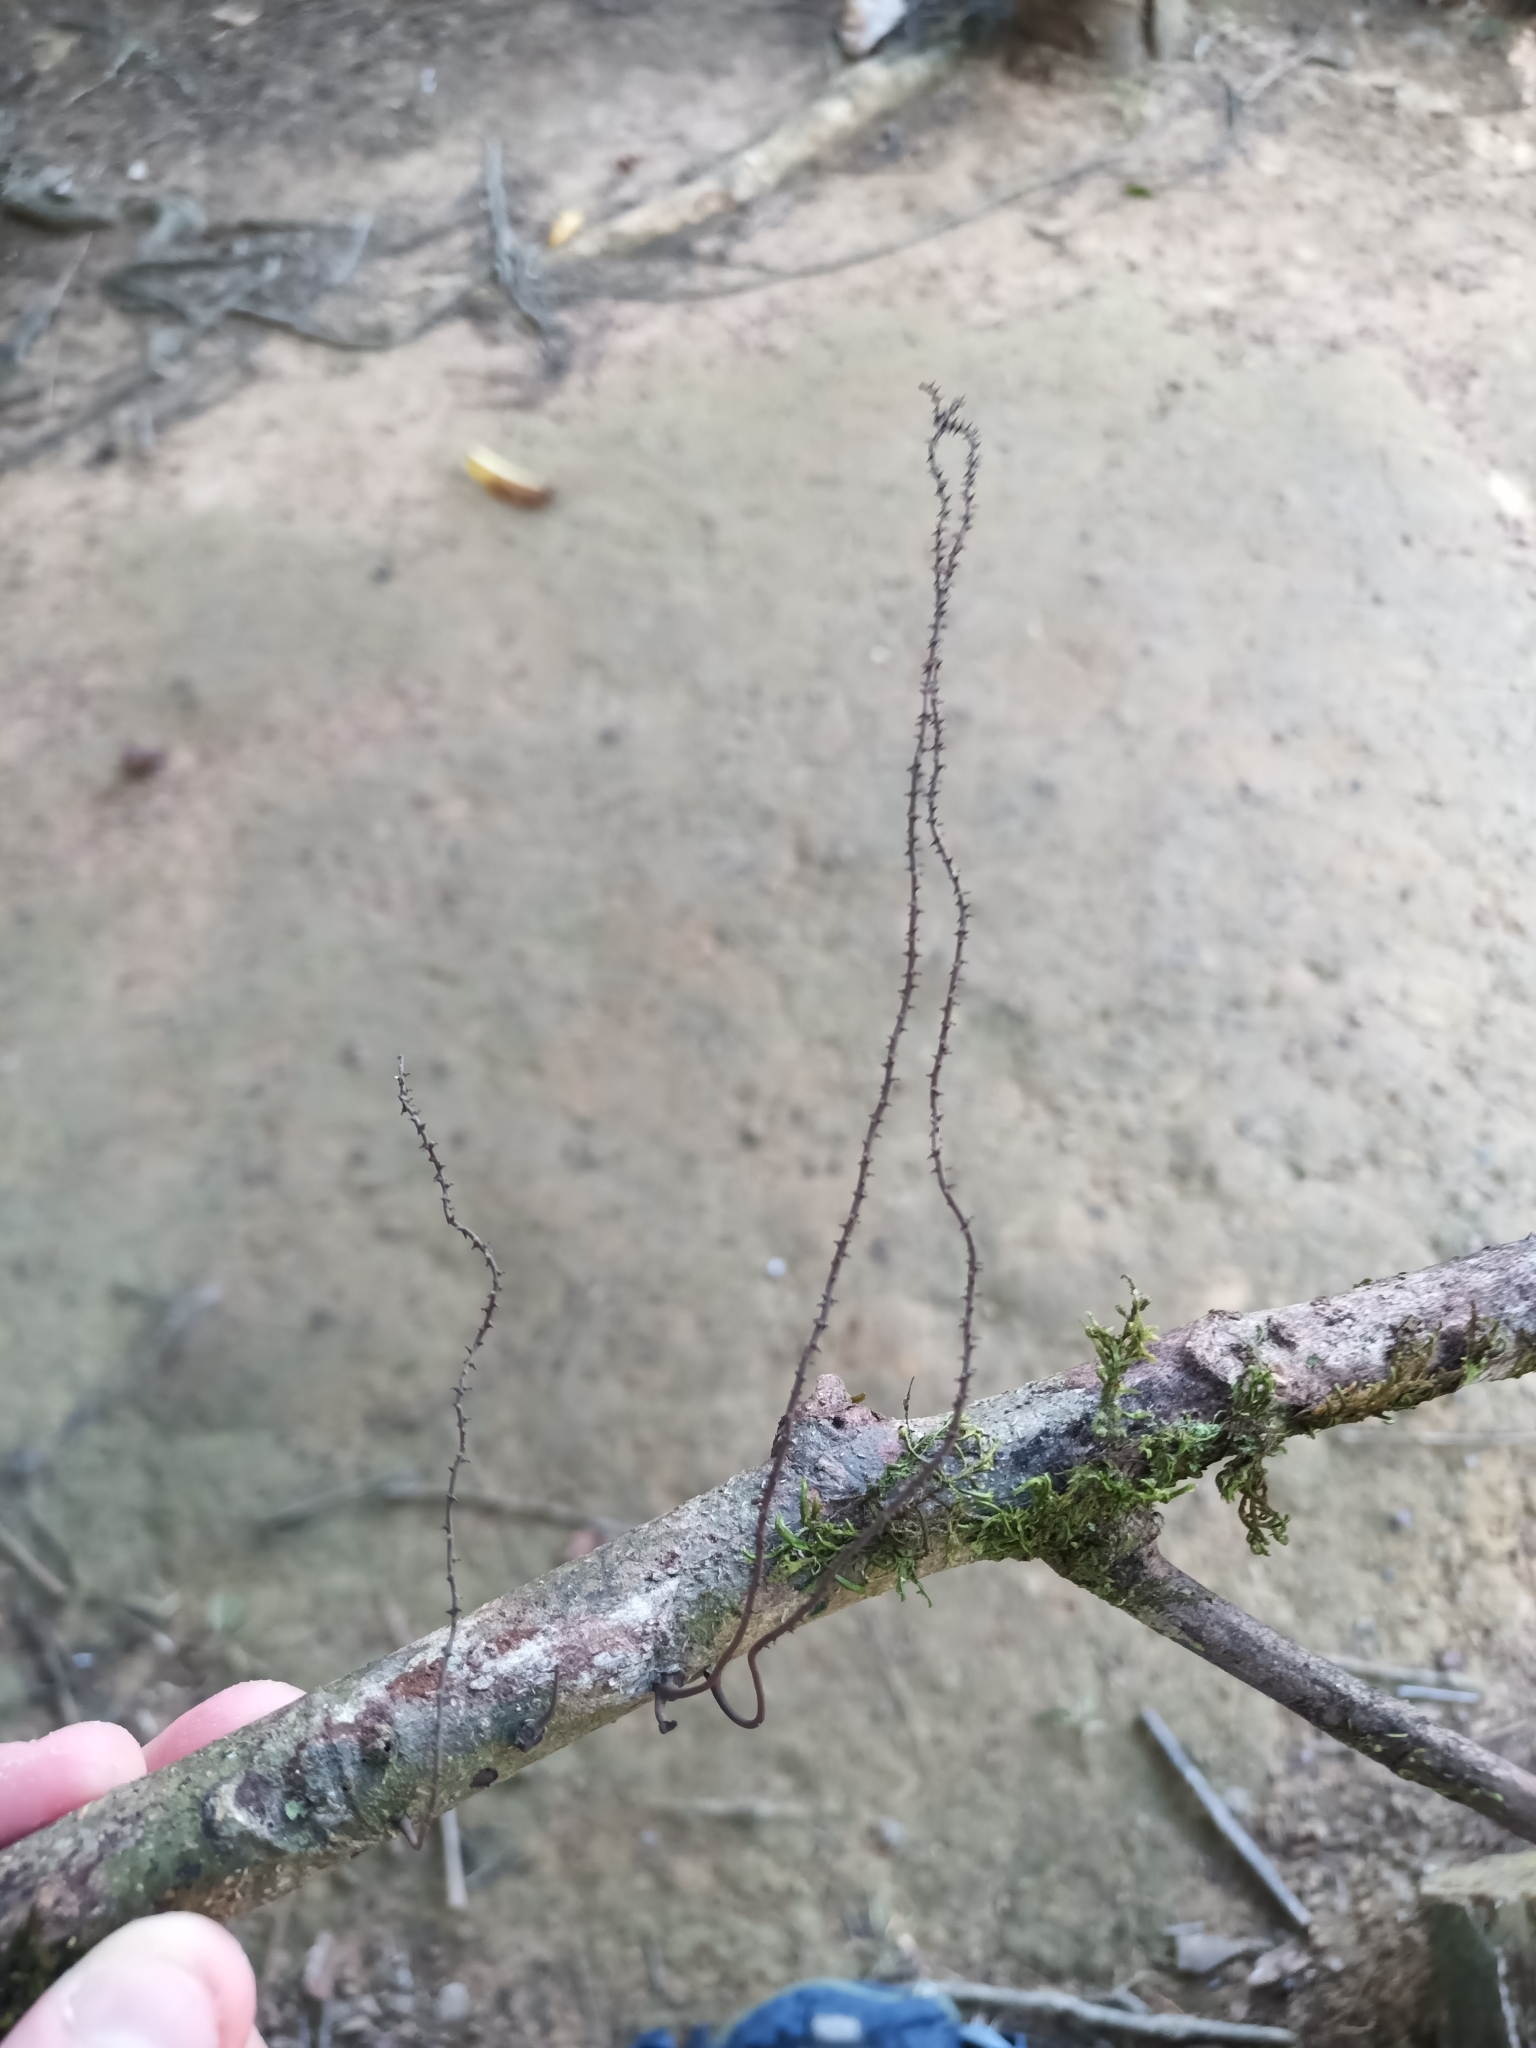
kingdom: Fungi
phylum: Ascomycota
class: Sordariomycetes
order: Xylariales
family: Hypoxylaceae
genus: Thamnomyces
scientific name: Thamnomyces chordalis
